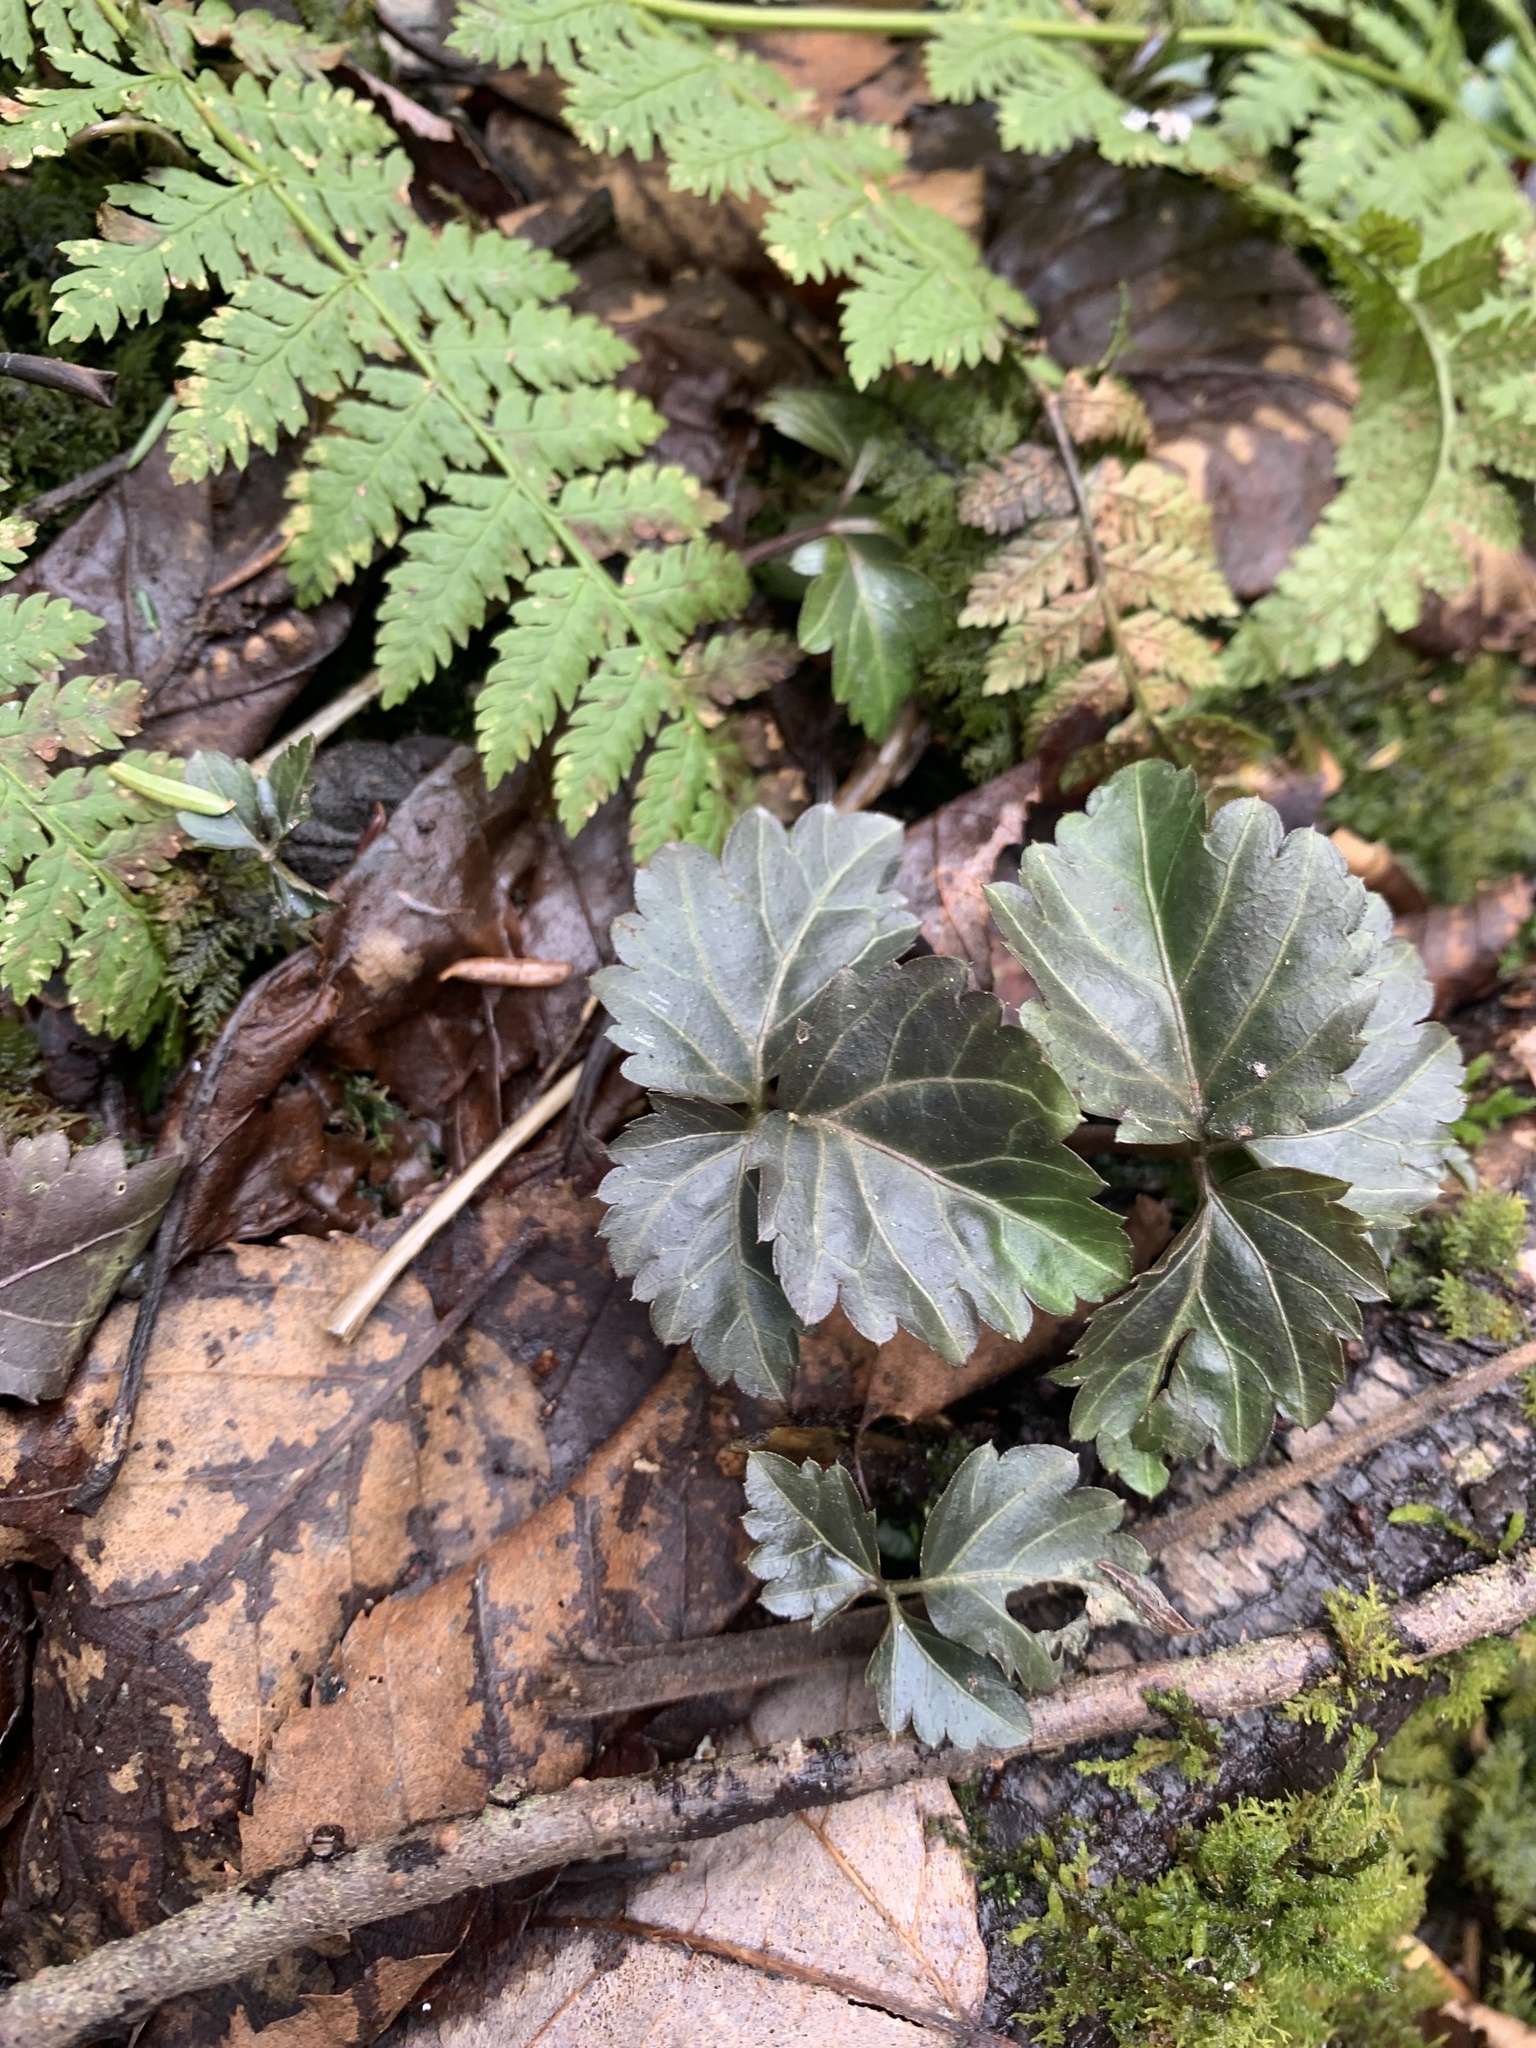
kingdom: Plantae
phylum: Tracheophyta
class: Magnoliopsida
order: Brassicales
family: Brassicaceae
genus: Cardamine
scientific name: Cardamine diphylla
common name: Broad-leaved toothwort
